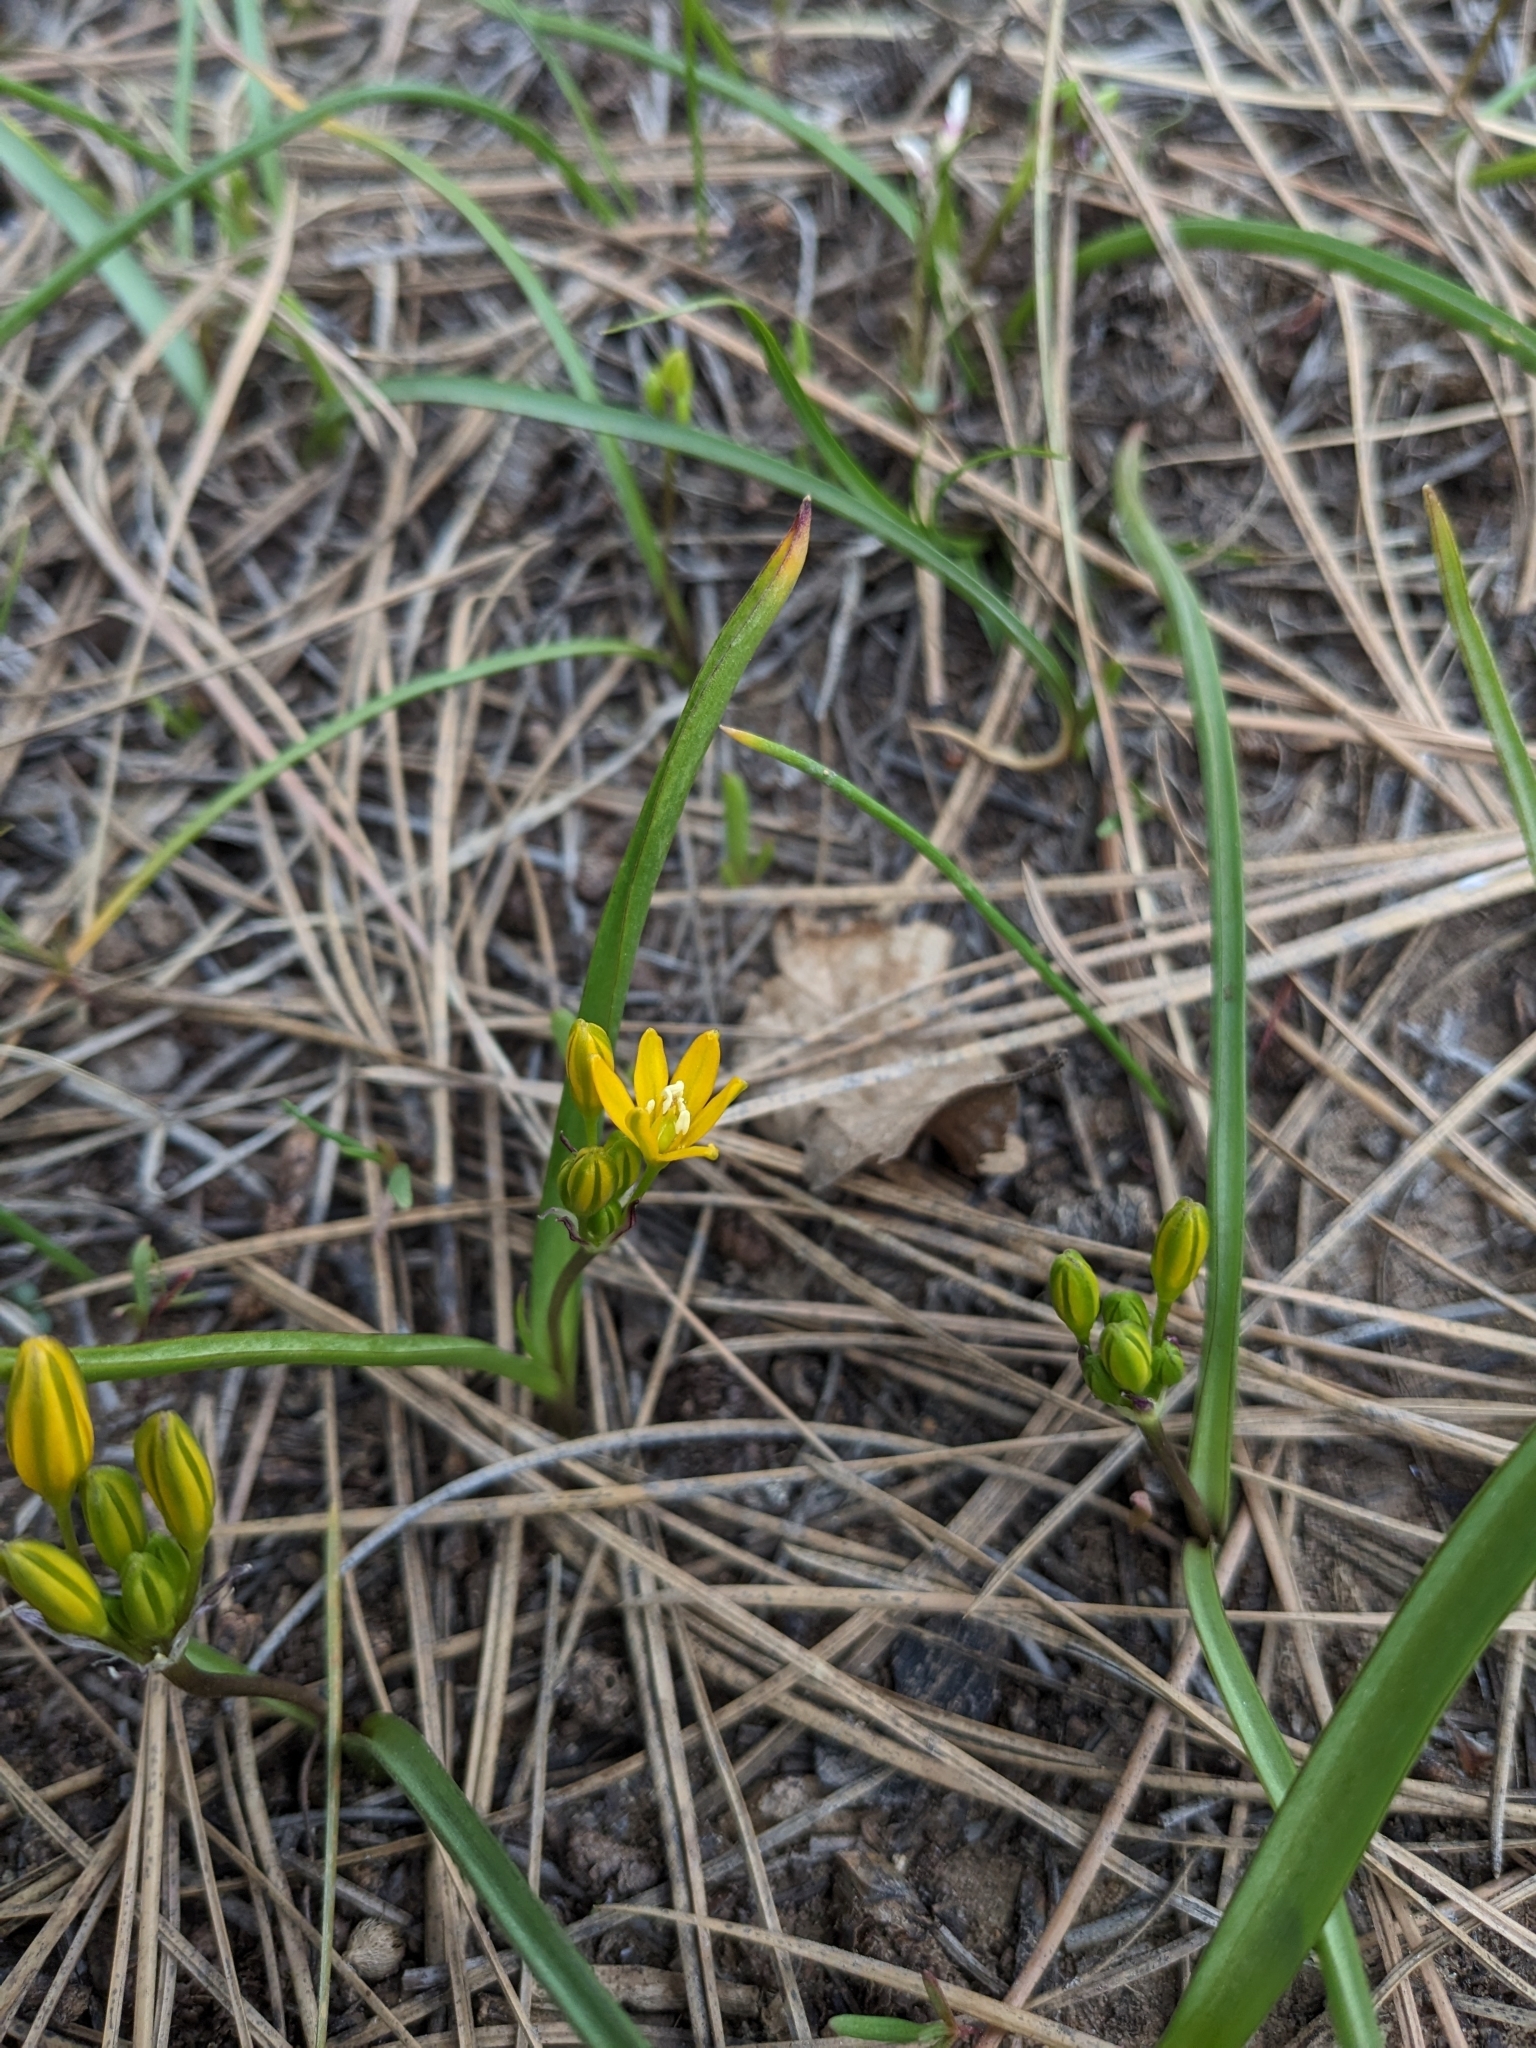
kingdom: Plantae
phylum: Tracheophyta
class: Liliopsida
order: Asparagales
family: Asparagaceae
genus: Triteleia
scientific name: Triteleia lemmoniae
